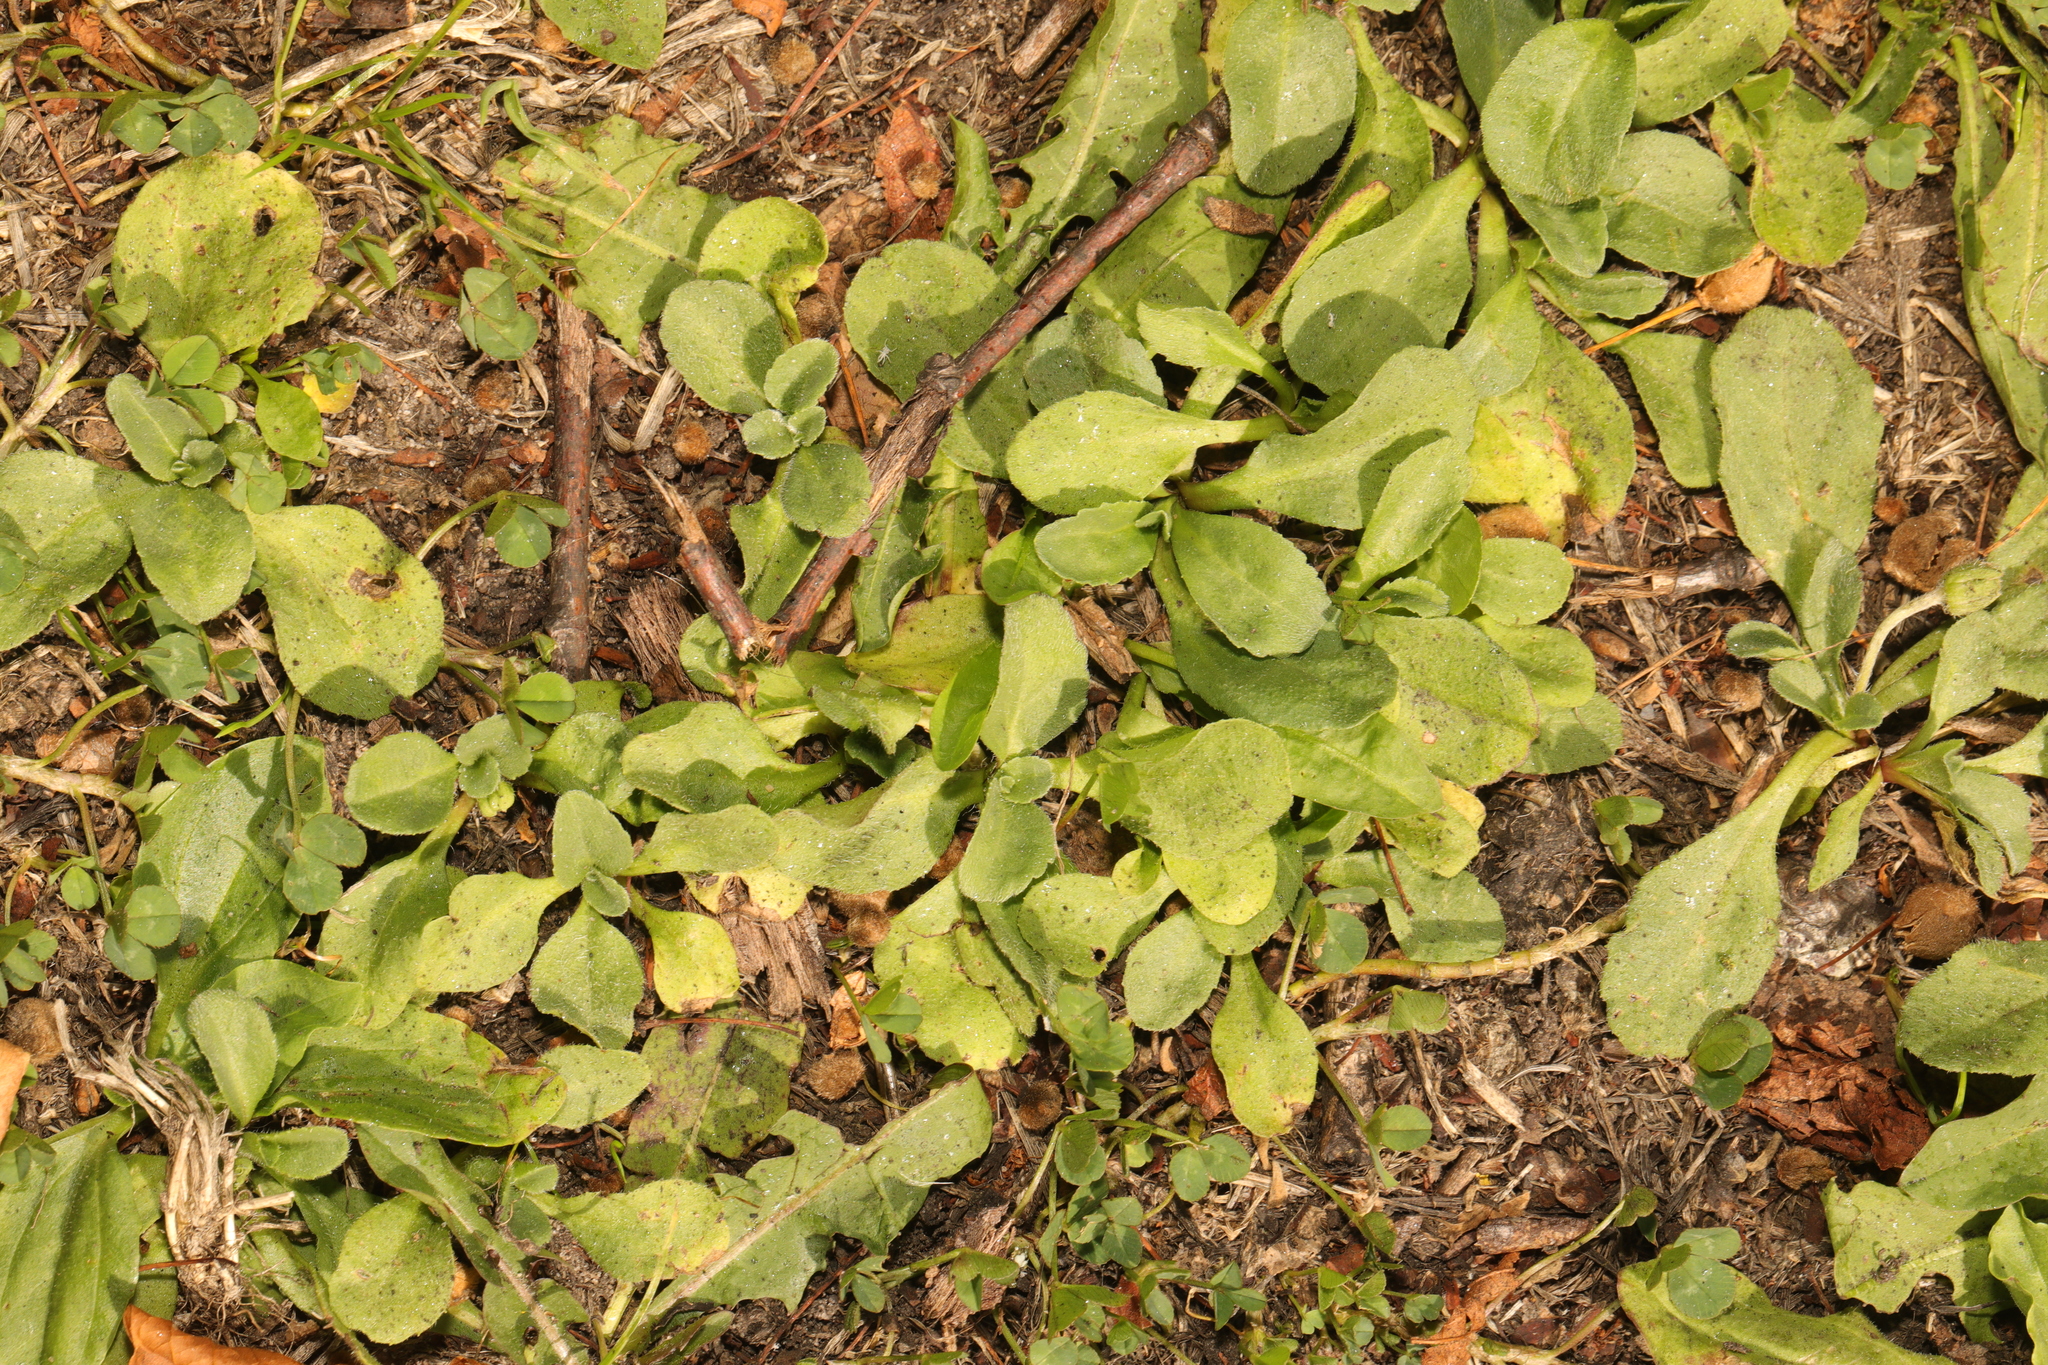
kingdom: Plantae
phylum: Tracheophyta
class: Magnoliopsida
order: Asterales
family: Asteraceae
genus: Bellis
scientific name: Bellis perennis
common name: Lawndaisy
